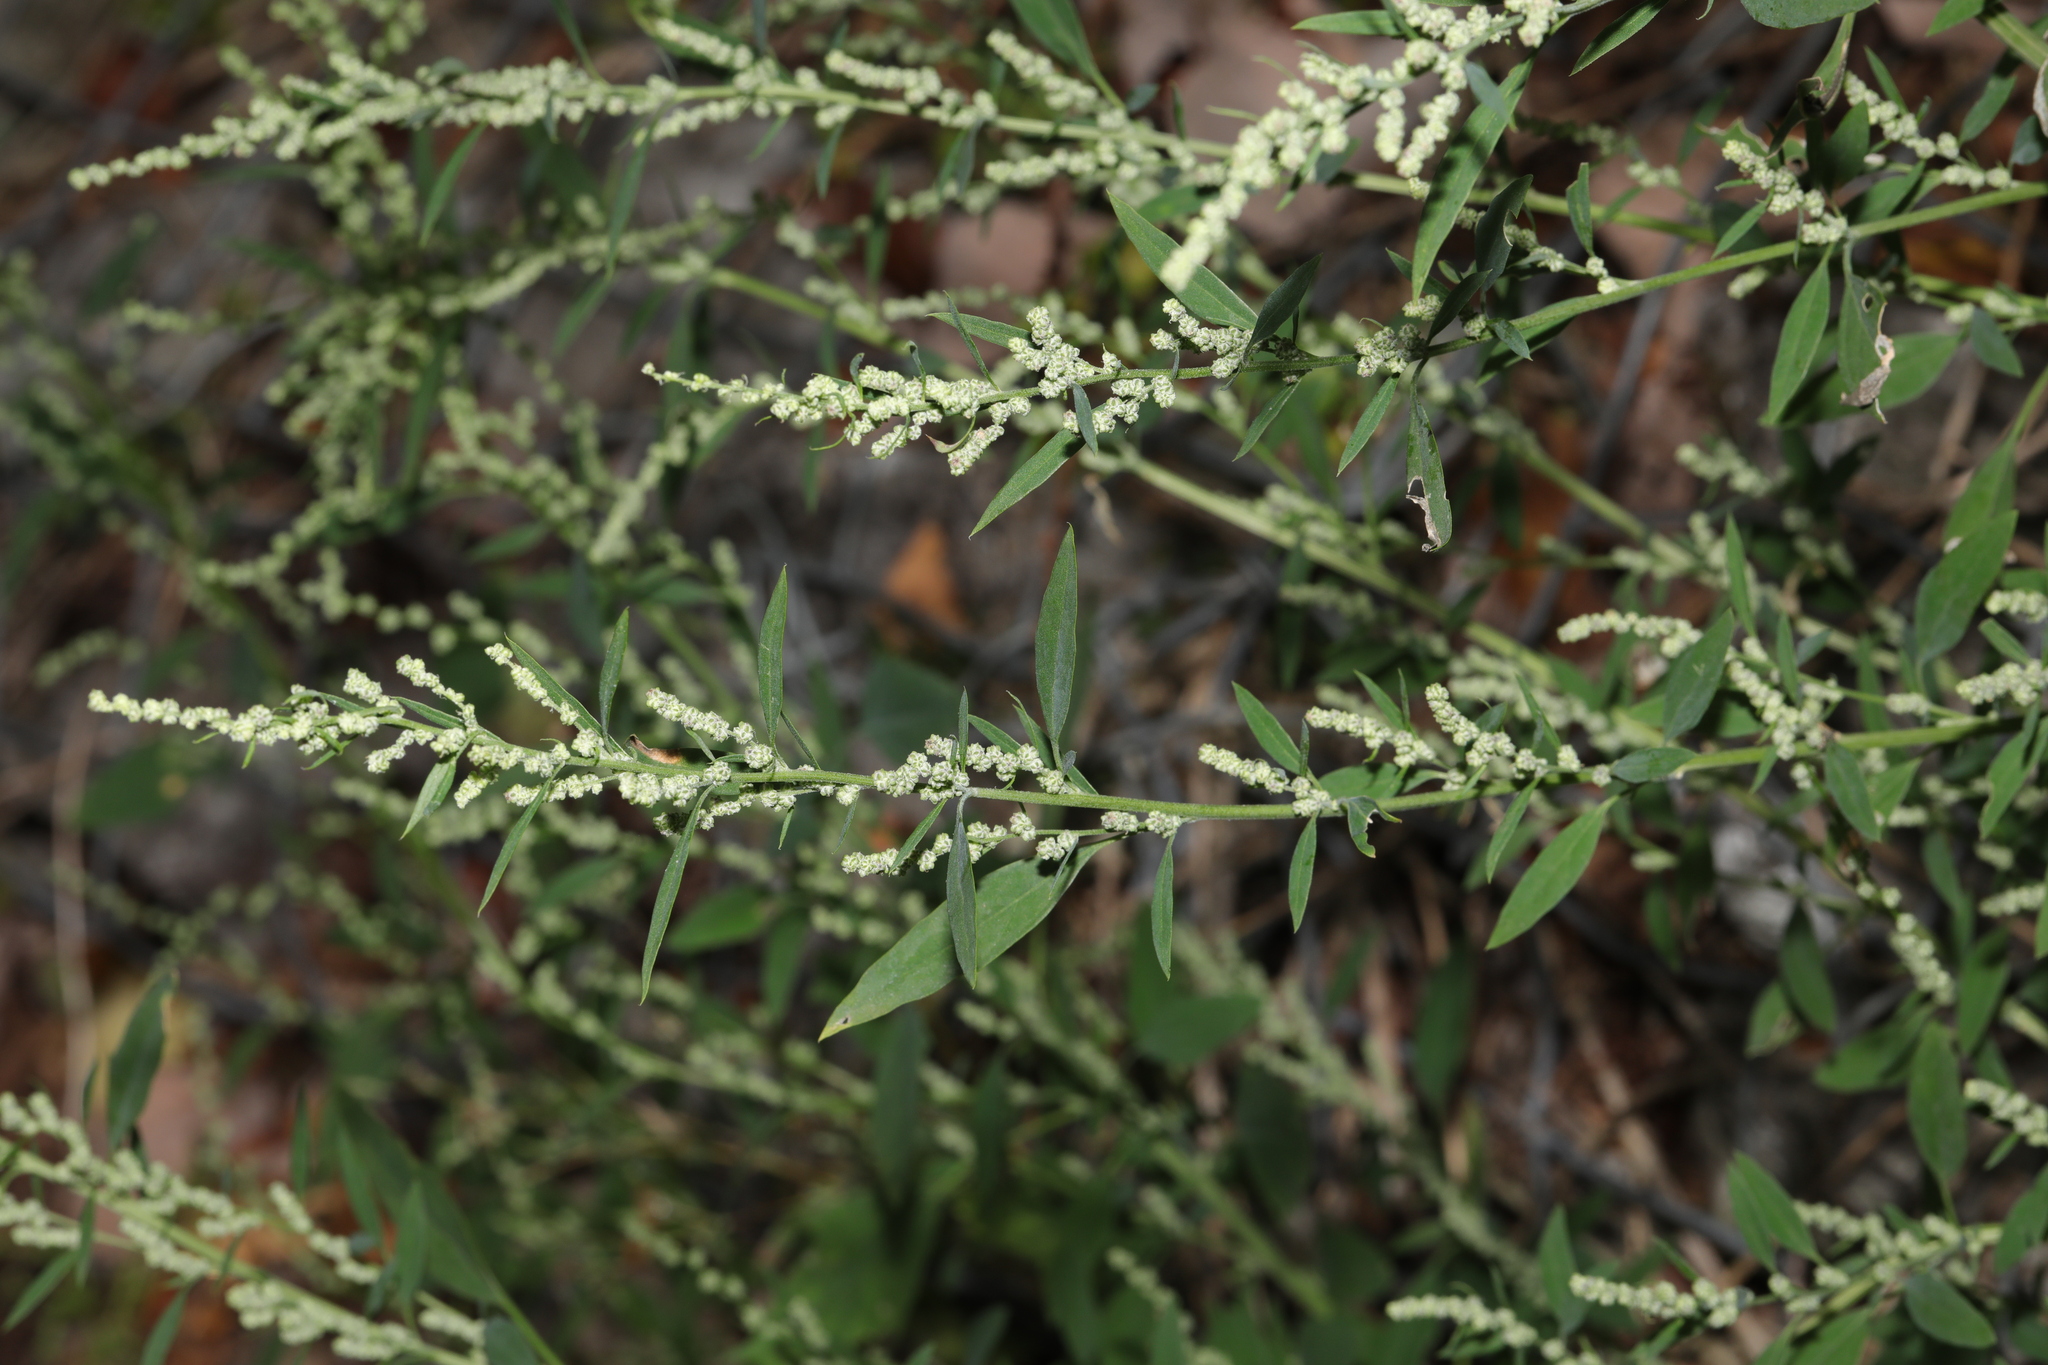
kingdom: Plantae
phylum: Tracheophyta
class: Magnoliopsida
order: Caryophyllales
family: Amaranthaceae
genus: Chenopodium
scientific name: Chenopodium album
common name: Fat-hen
